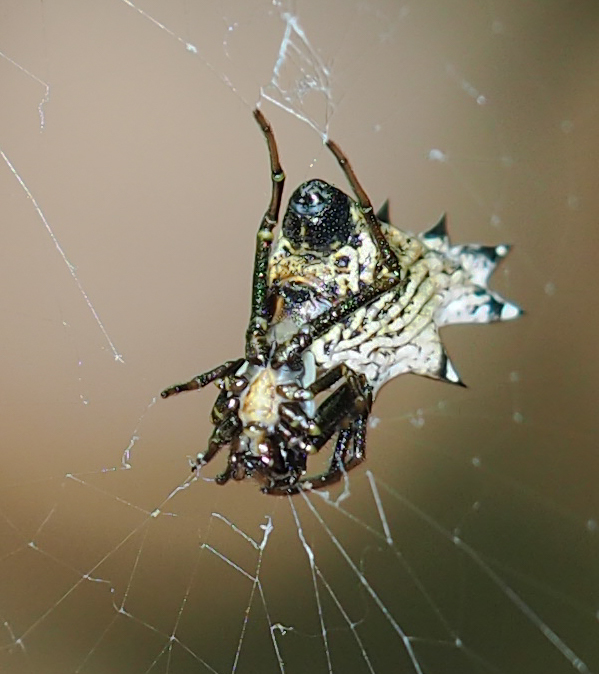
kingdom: Animalia
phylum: Arthropoda
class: Arachnida
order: Araneae
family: Araneidae
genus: Micrathena
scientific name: Micrathena gracilis
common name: Orb weavers
